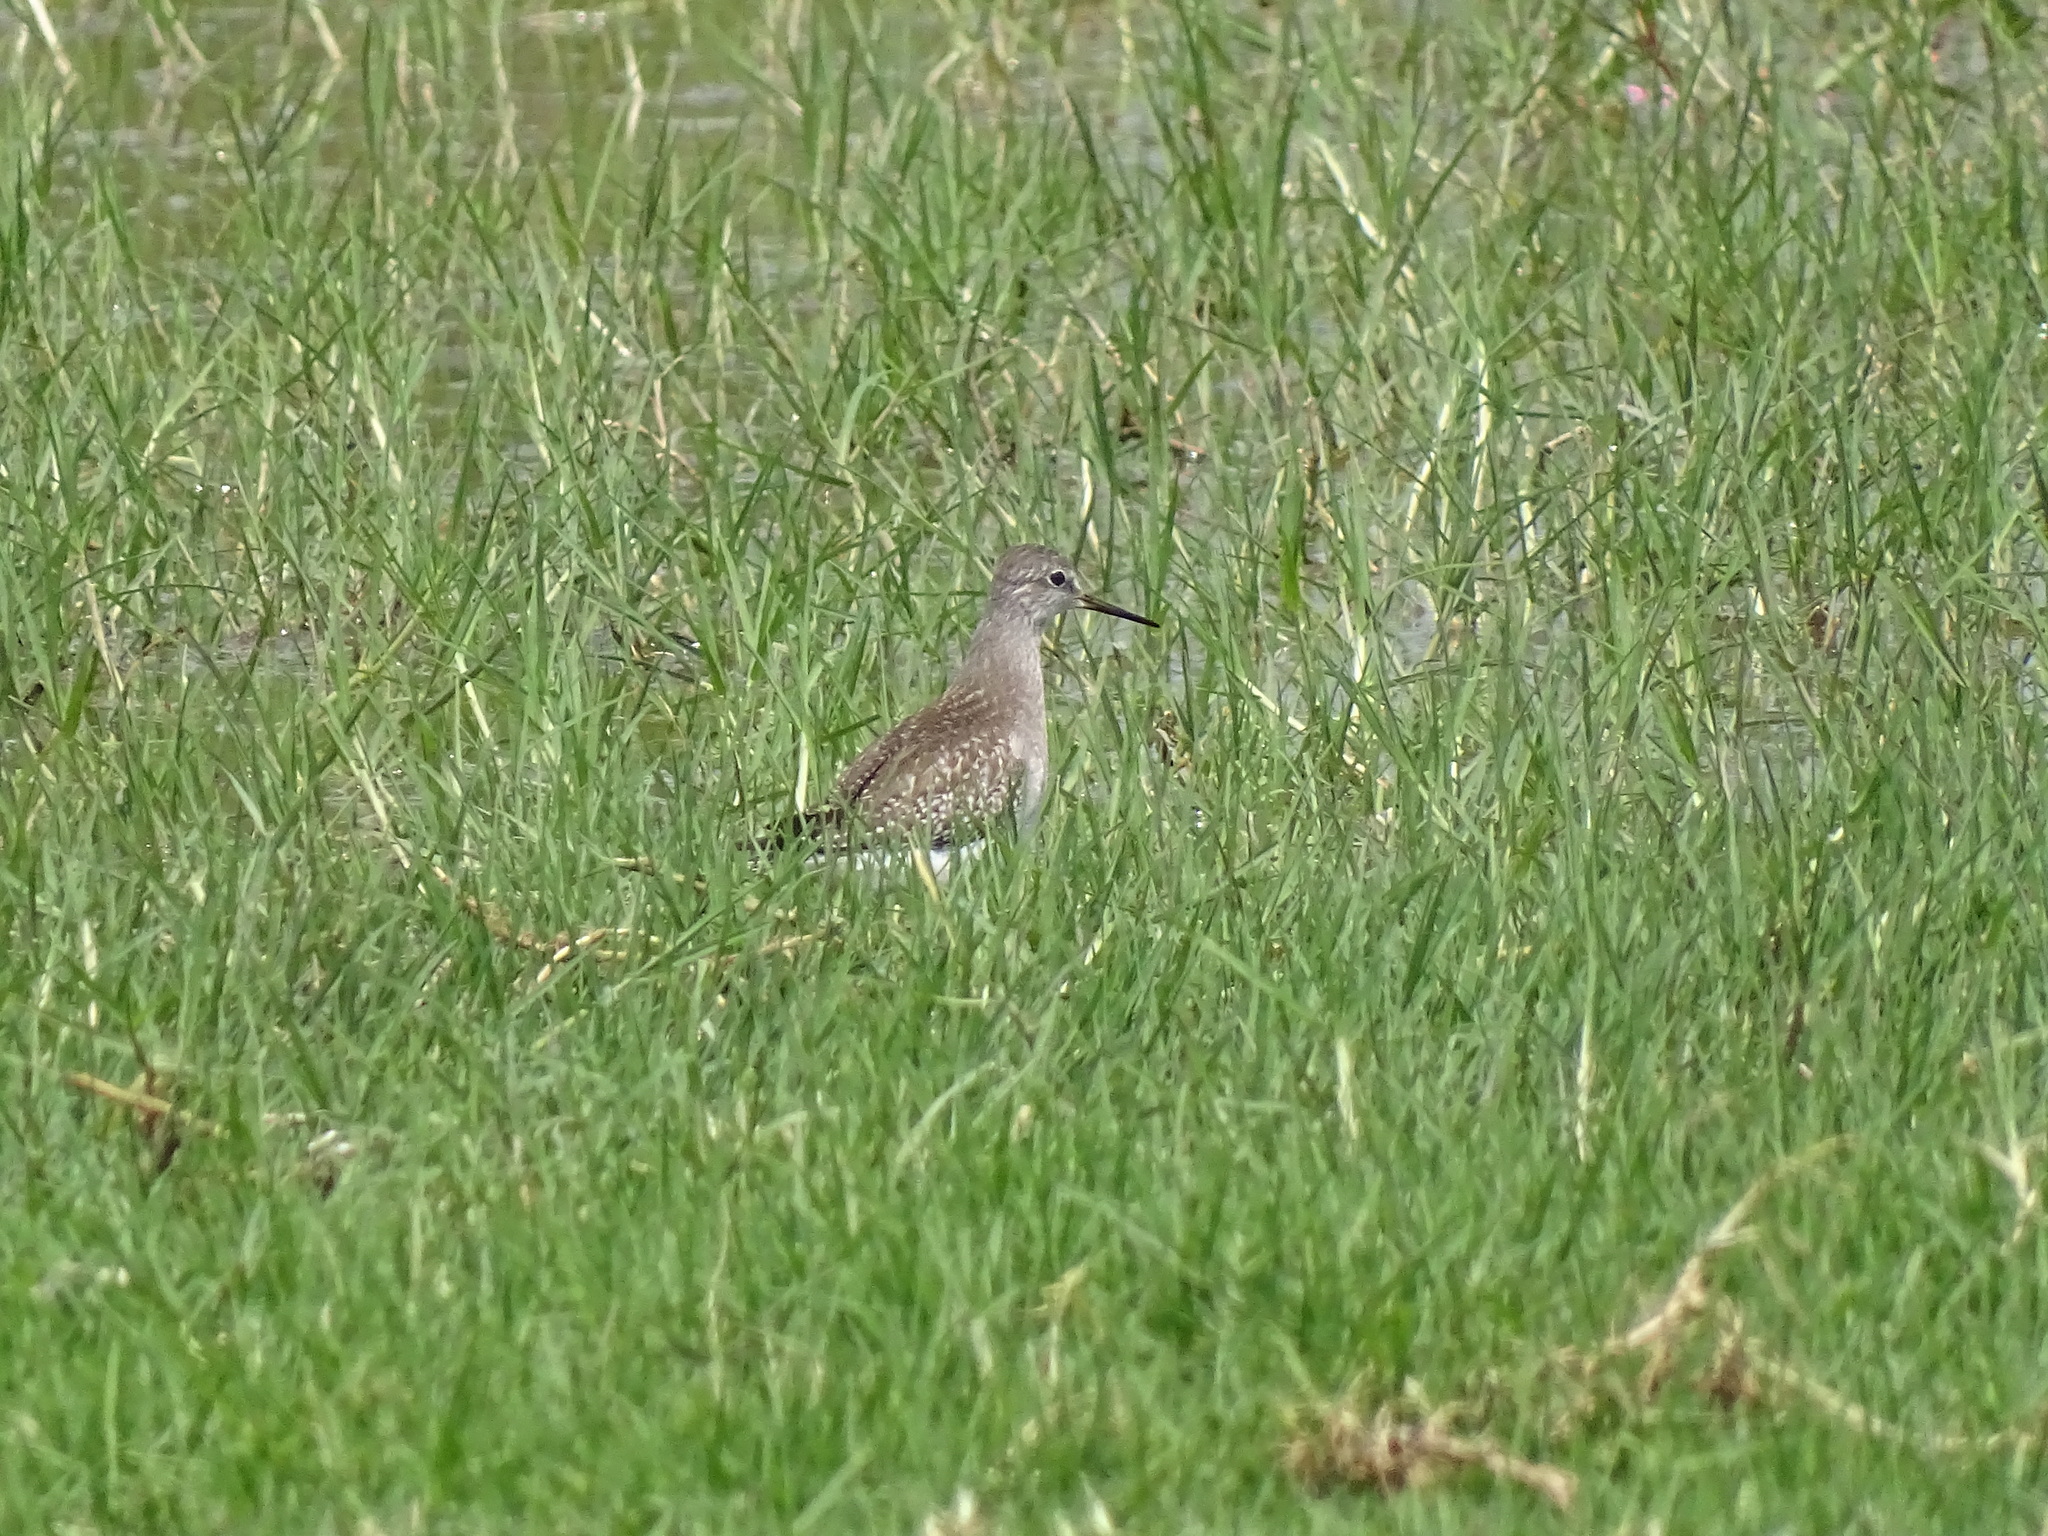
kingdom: Animalia
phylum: Chordata
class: Aves
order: Charadriiformes
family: Scolopacidae
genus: Tringa
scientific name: Tringa flavipes
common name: Lesser yellowlegs
